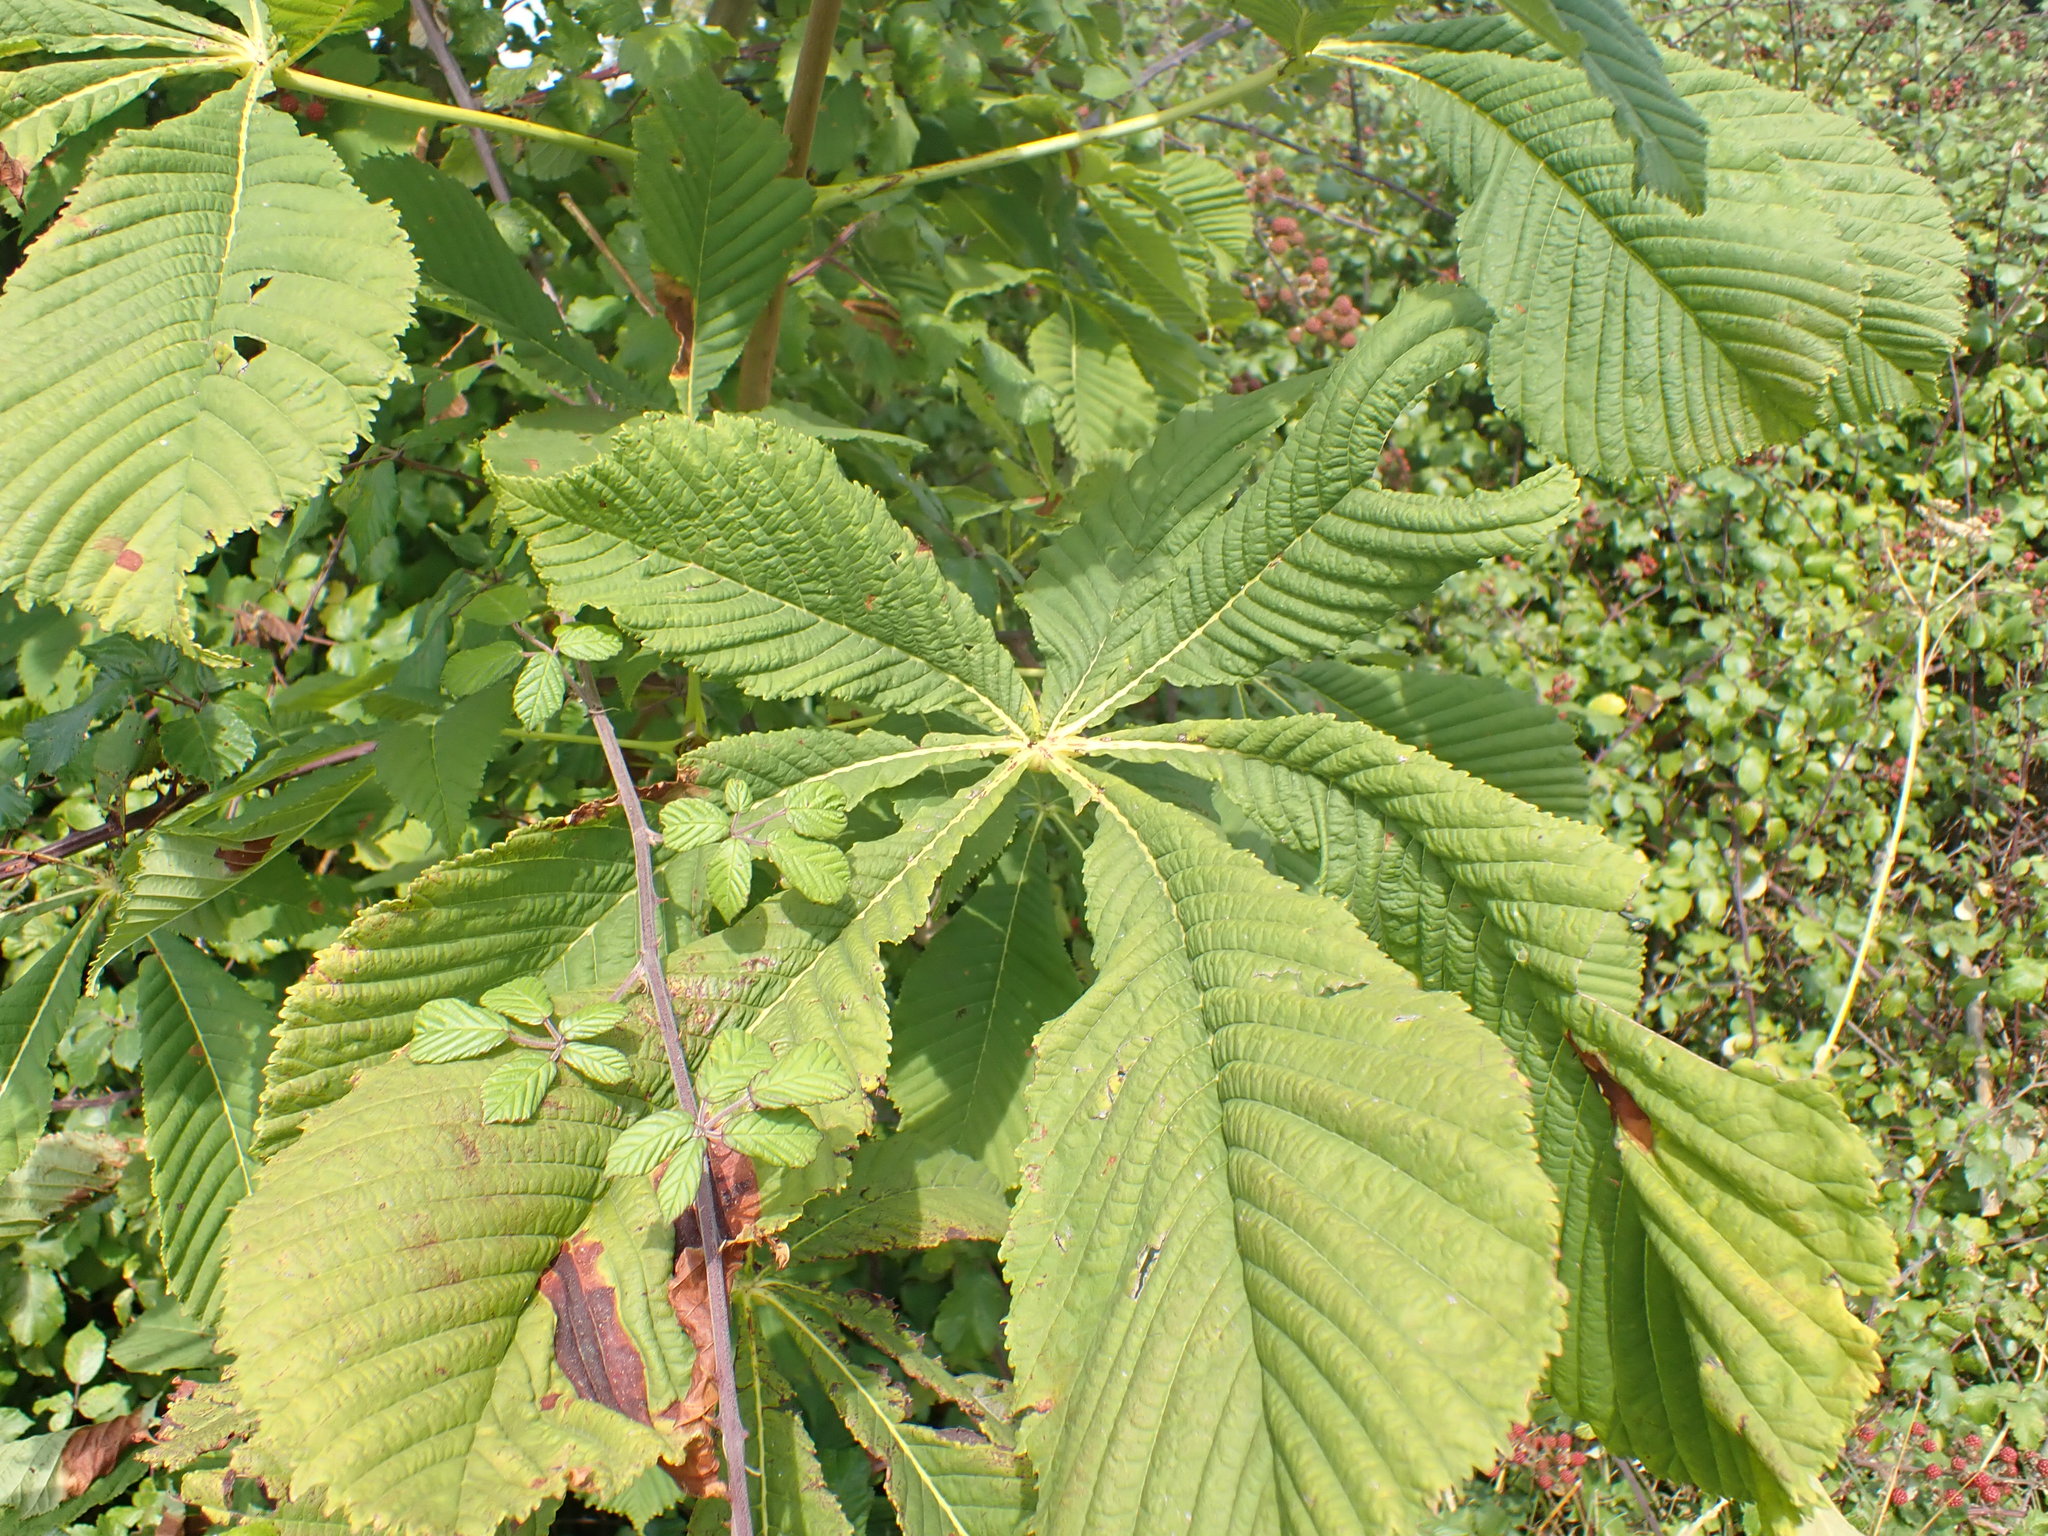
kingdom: Plantae
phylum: Tracheophyta
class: Magnoliopsida
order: Sapindales
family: Sapindaceae
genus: Aesculus
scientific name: Aesculus hippocastanum
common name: Horse-chestnut
